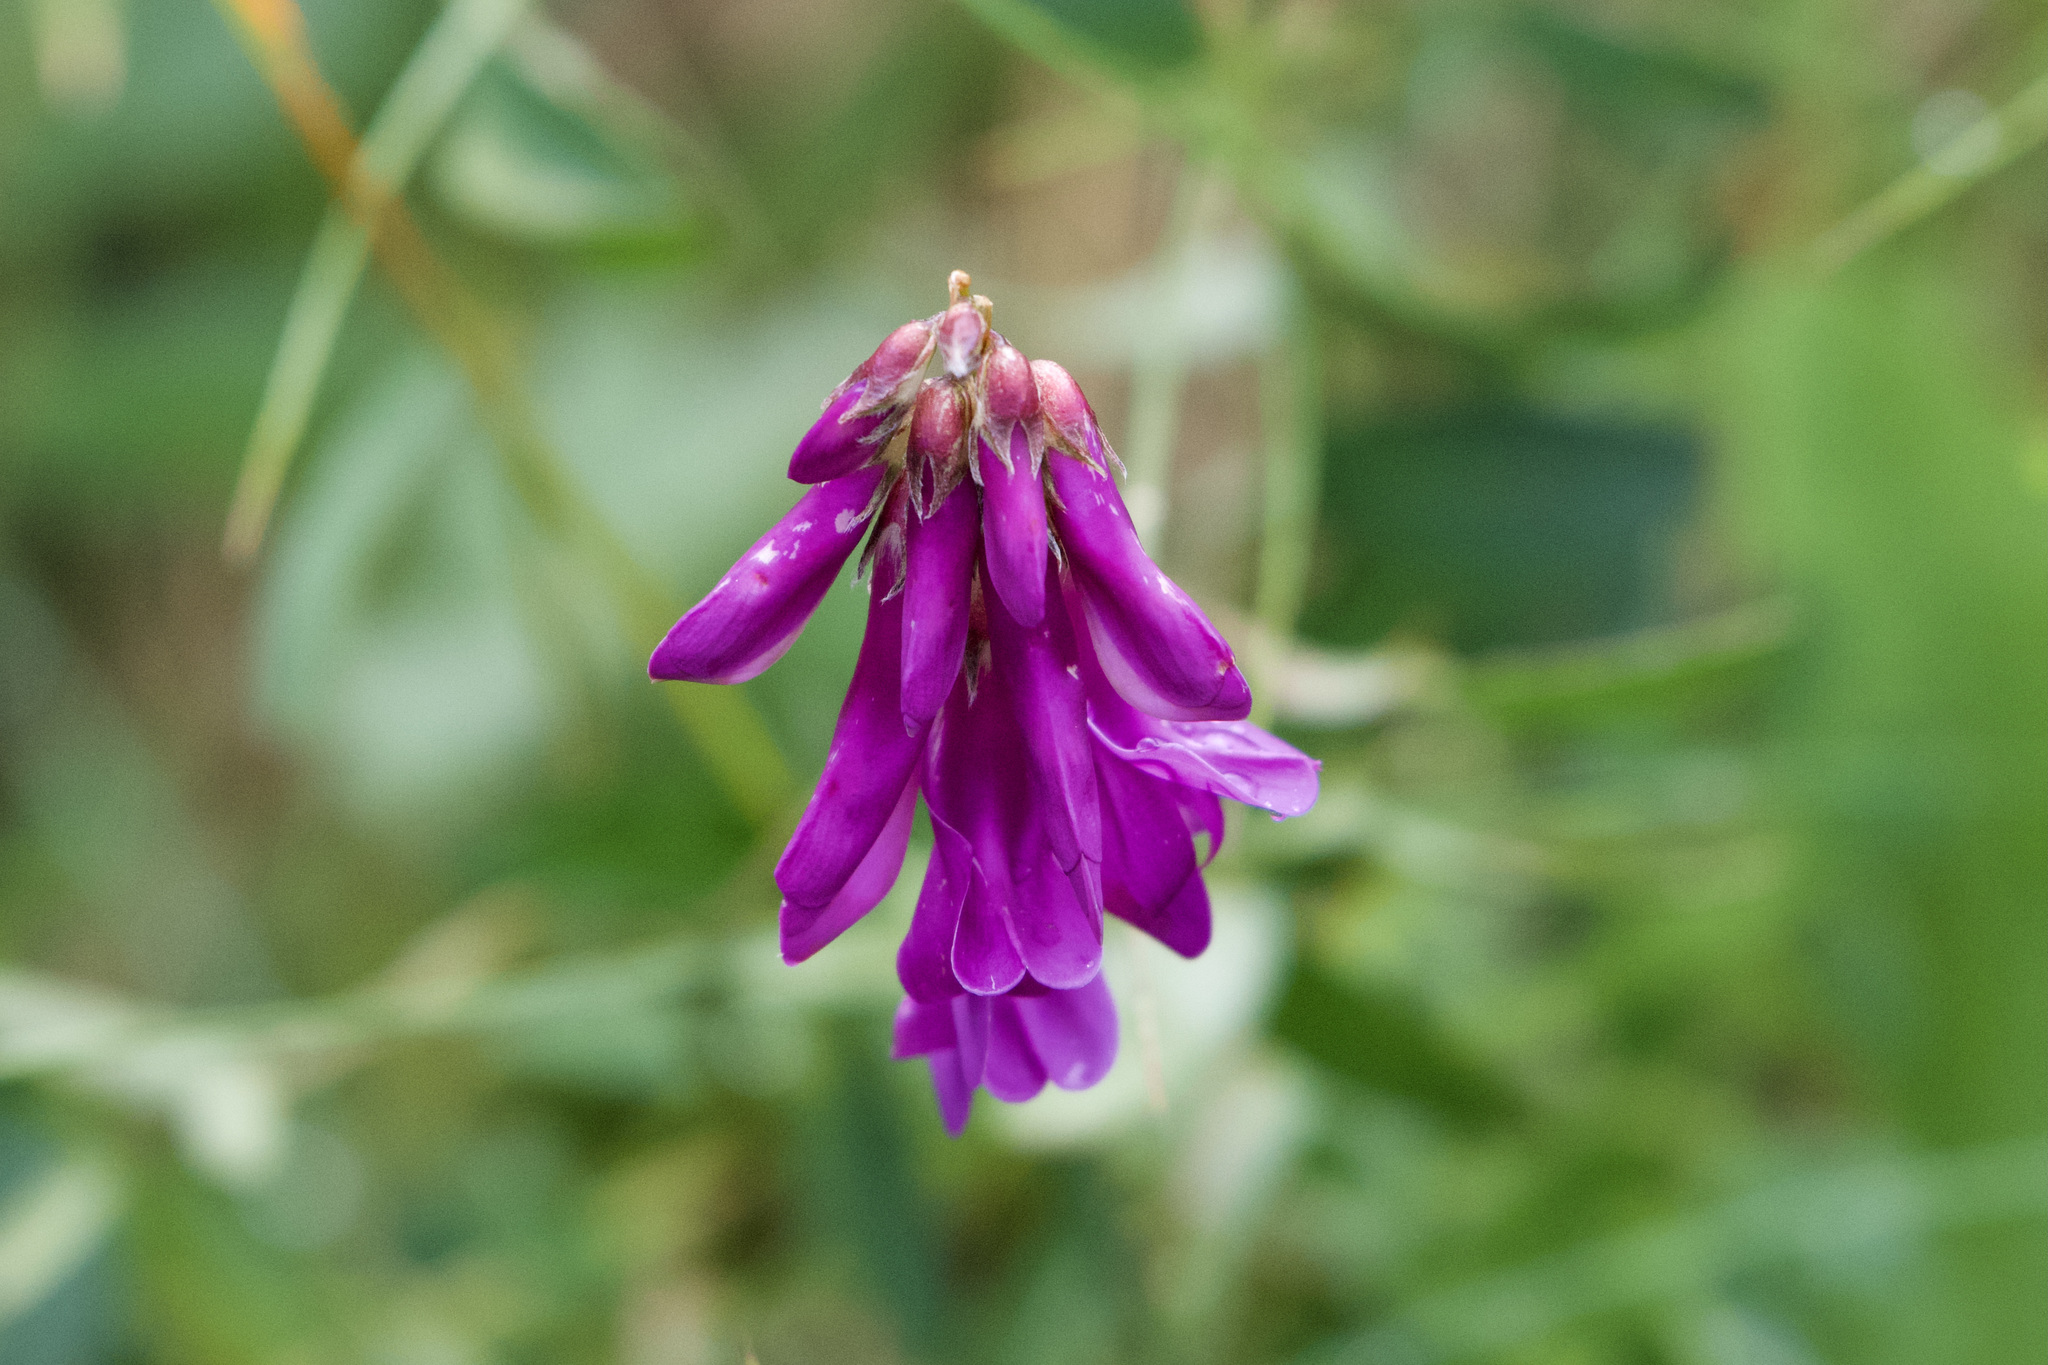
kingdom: Plantae
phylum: Tracheophyta
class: Magnoliopsida
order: Fabales
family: Fabaceae
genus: Hedysarum
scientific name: Hedysarum hedysaroides
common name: Alpine french-honeysuckle
